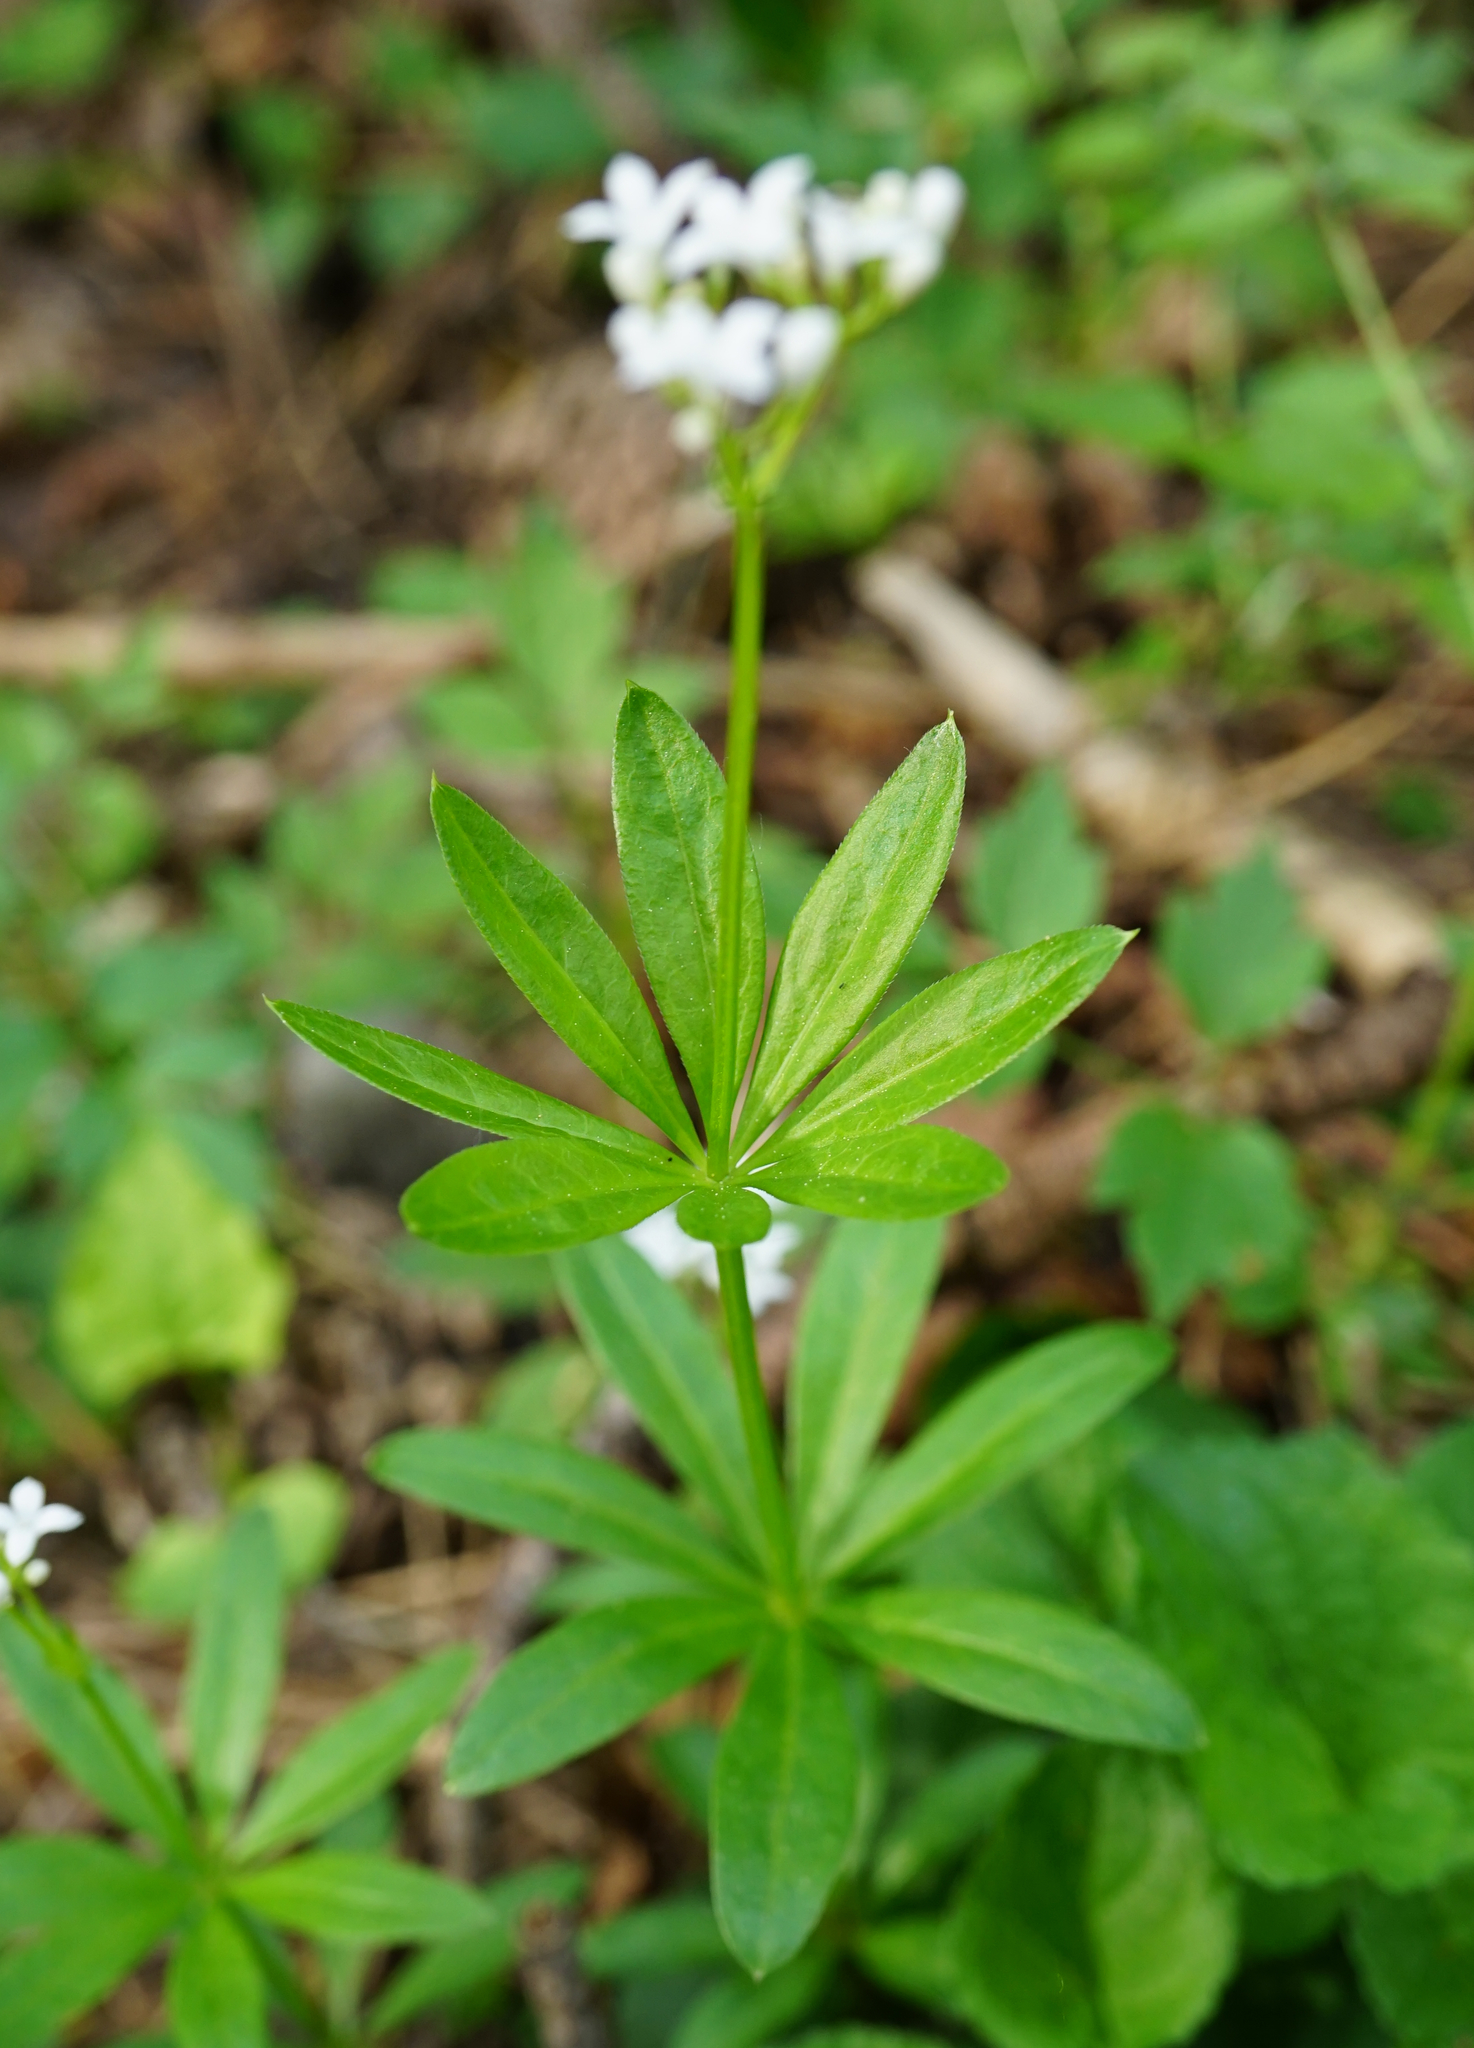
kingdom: Plantae
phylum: Tracheophyta
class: Magnoliopsida
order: Gentianales
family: Rubiaceae
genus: Galium
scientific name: Galium odoratum
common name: Sweet woodruff
